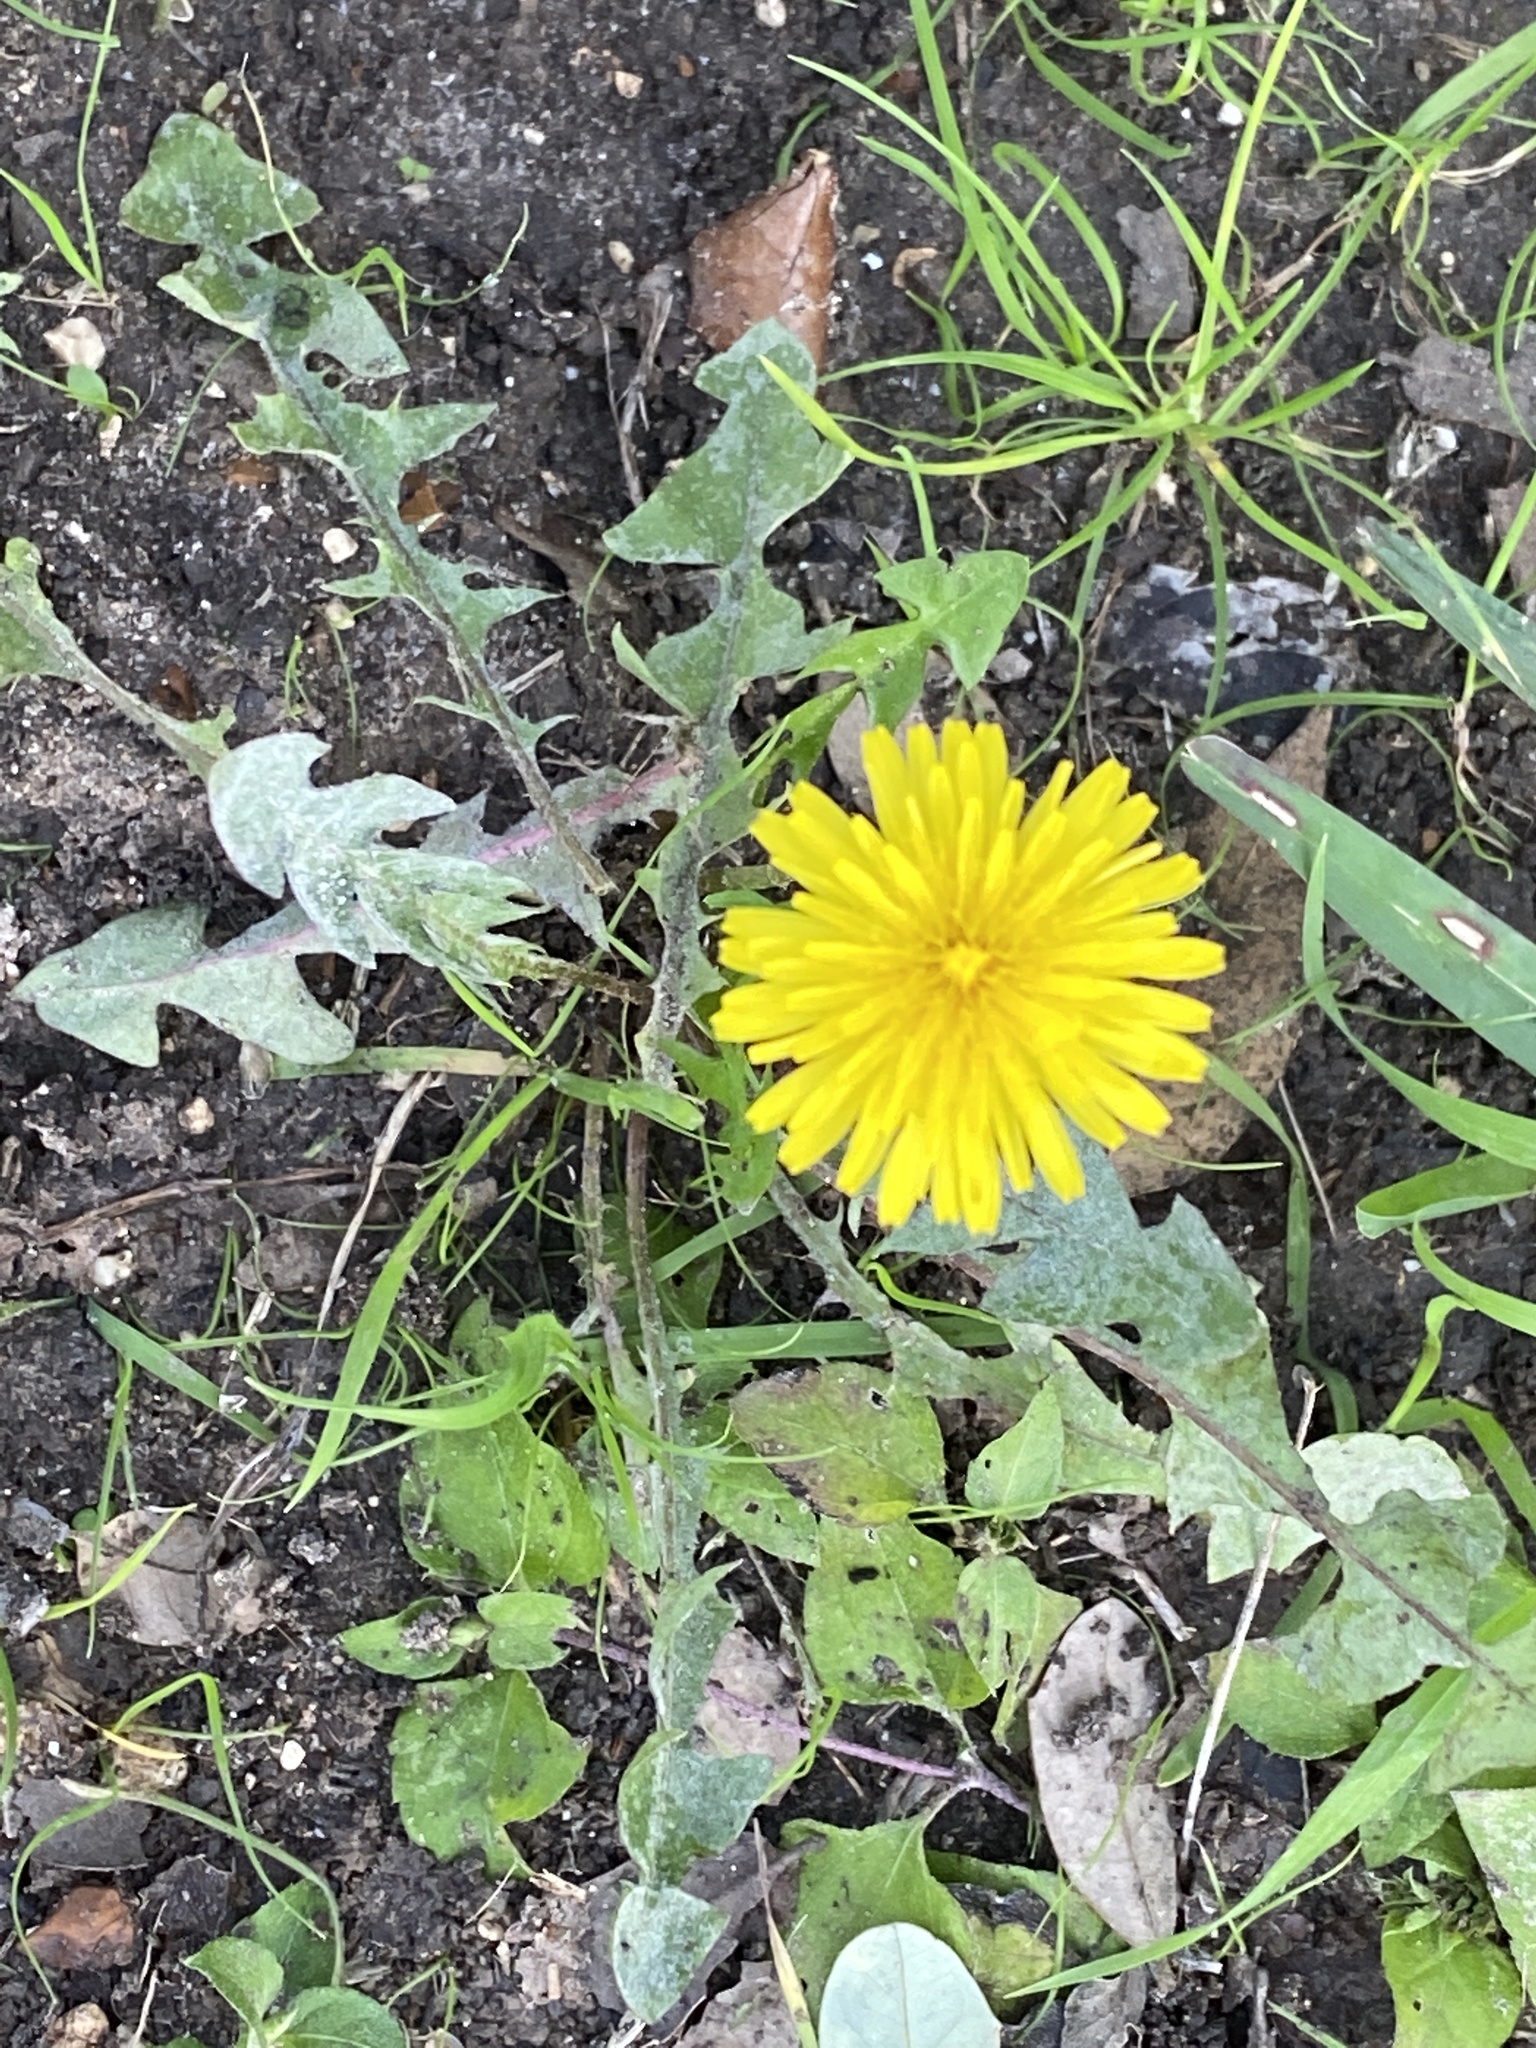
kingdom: Plantae
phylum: Tracheophyta
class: Magnoliopsida
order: Asterales
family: Asteraceae
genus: Taraxacum
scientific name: Taraxacum officinale
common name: Common dandelion
